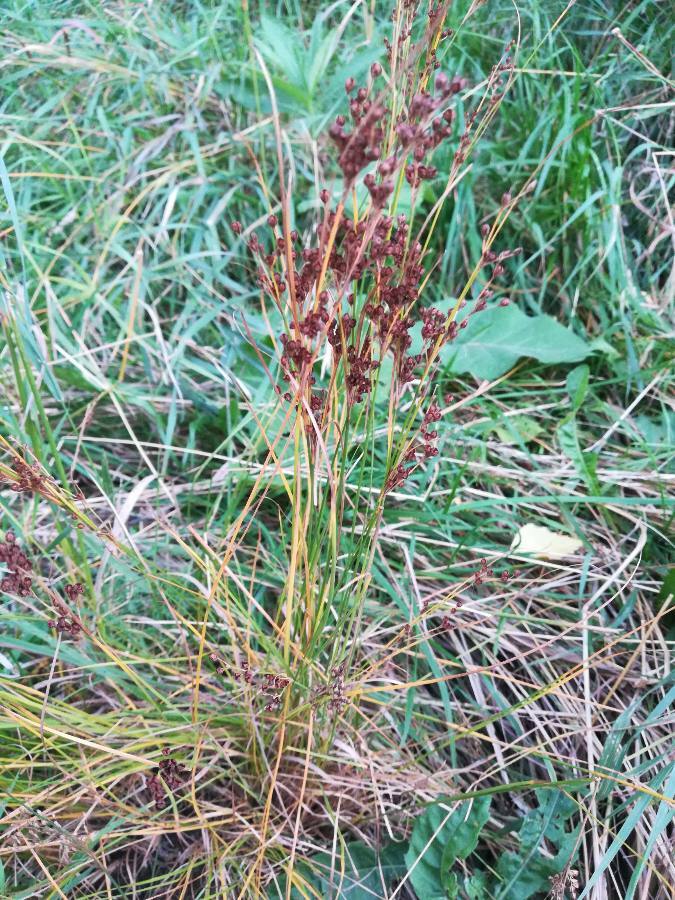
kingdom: Plantae
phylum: Tracheophyta
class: Liliopsida
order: Poales
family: Juncaceae
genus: Juncus
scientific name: Juncus compressus
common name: Round-fruited rush
